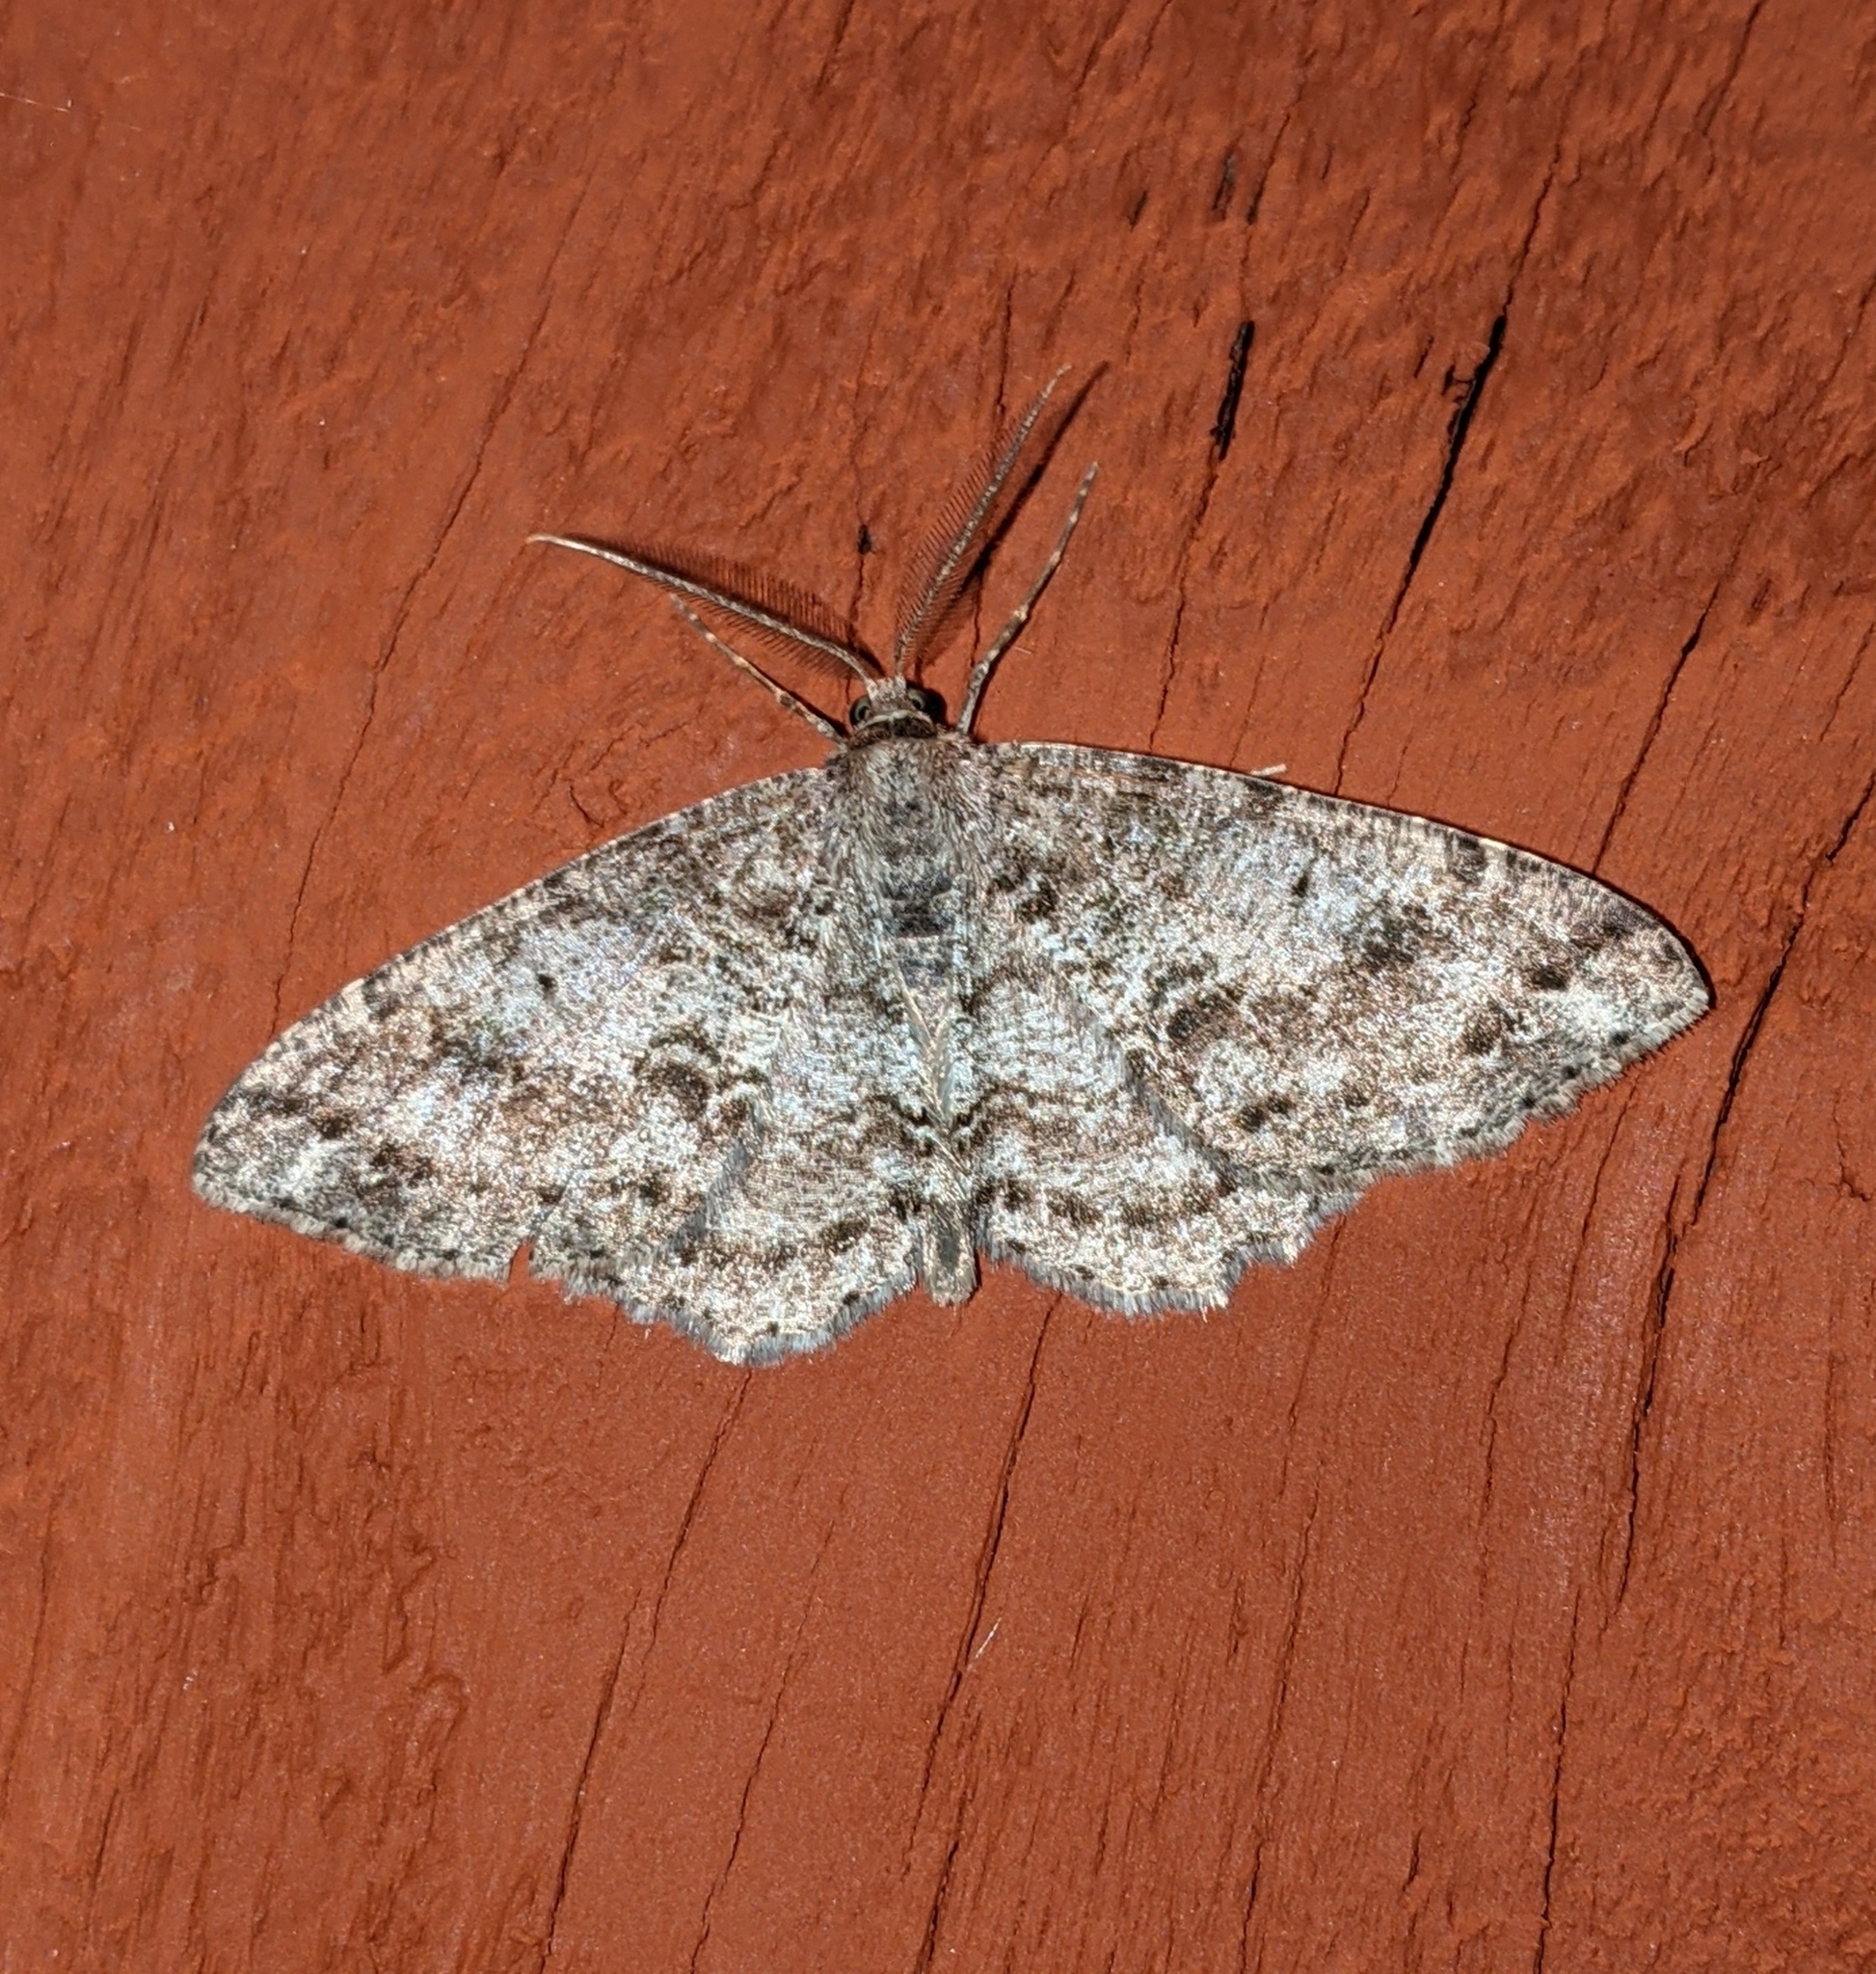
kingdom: Animalia
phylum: Arthropoda
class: Insecta
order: Lepidoptera
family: Geometridae
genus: Melanolophia
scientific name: Melanolophia imitata
